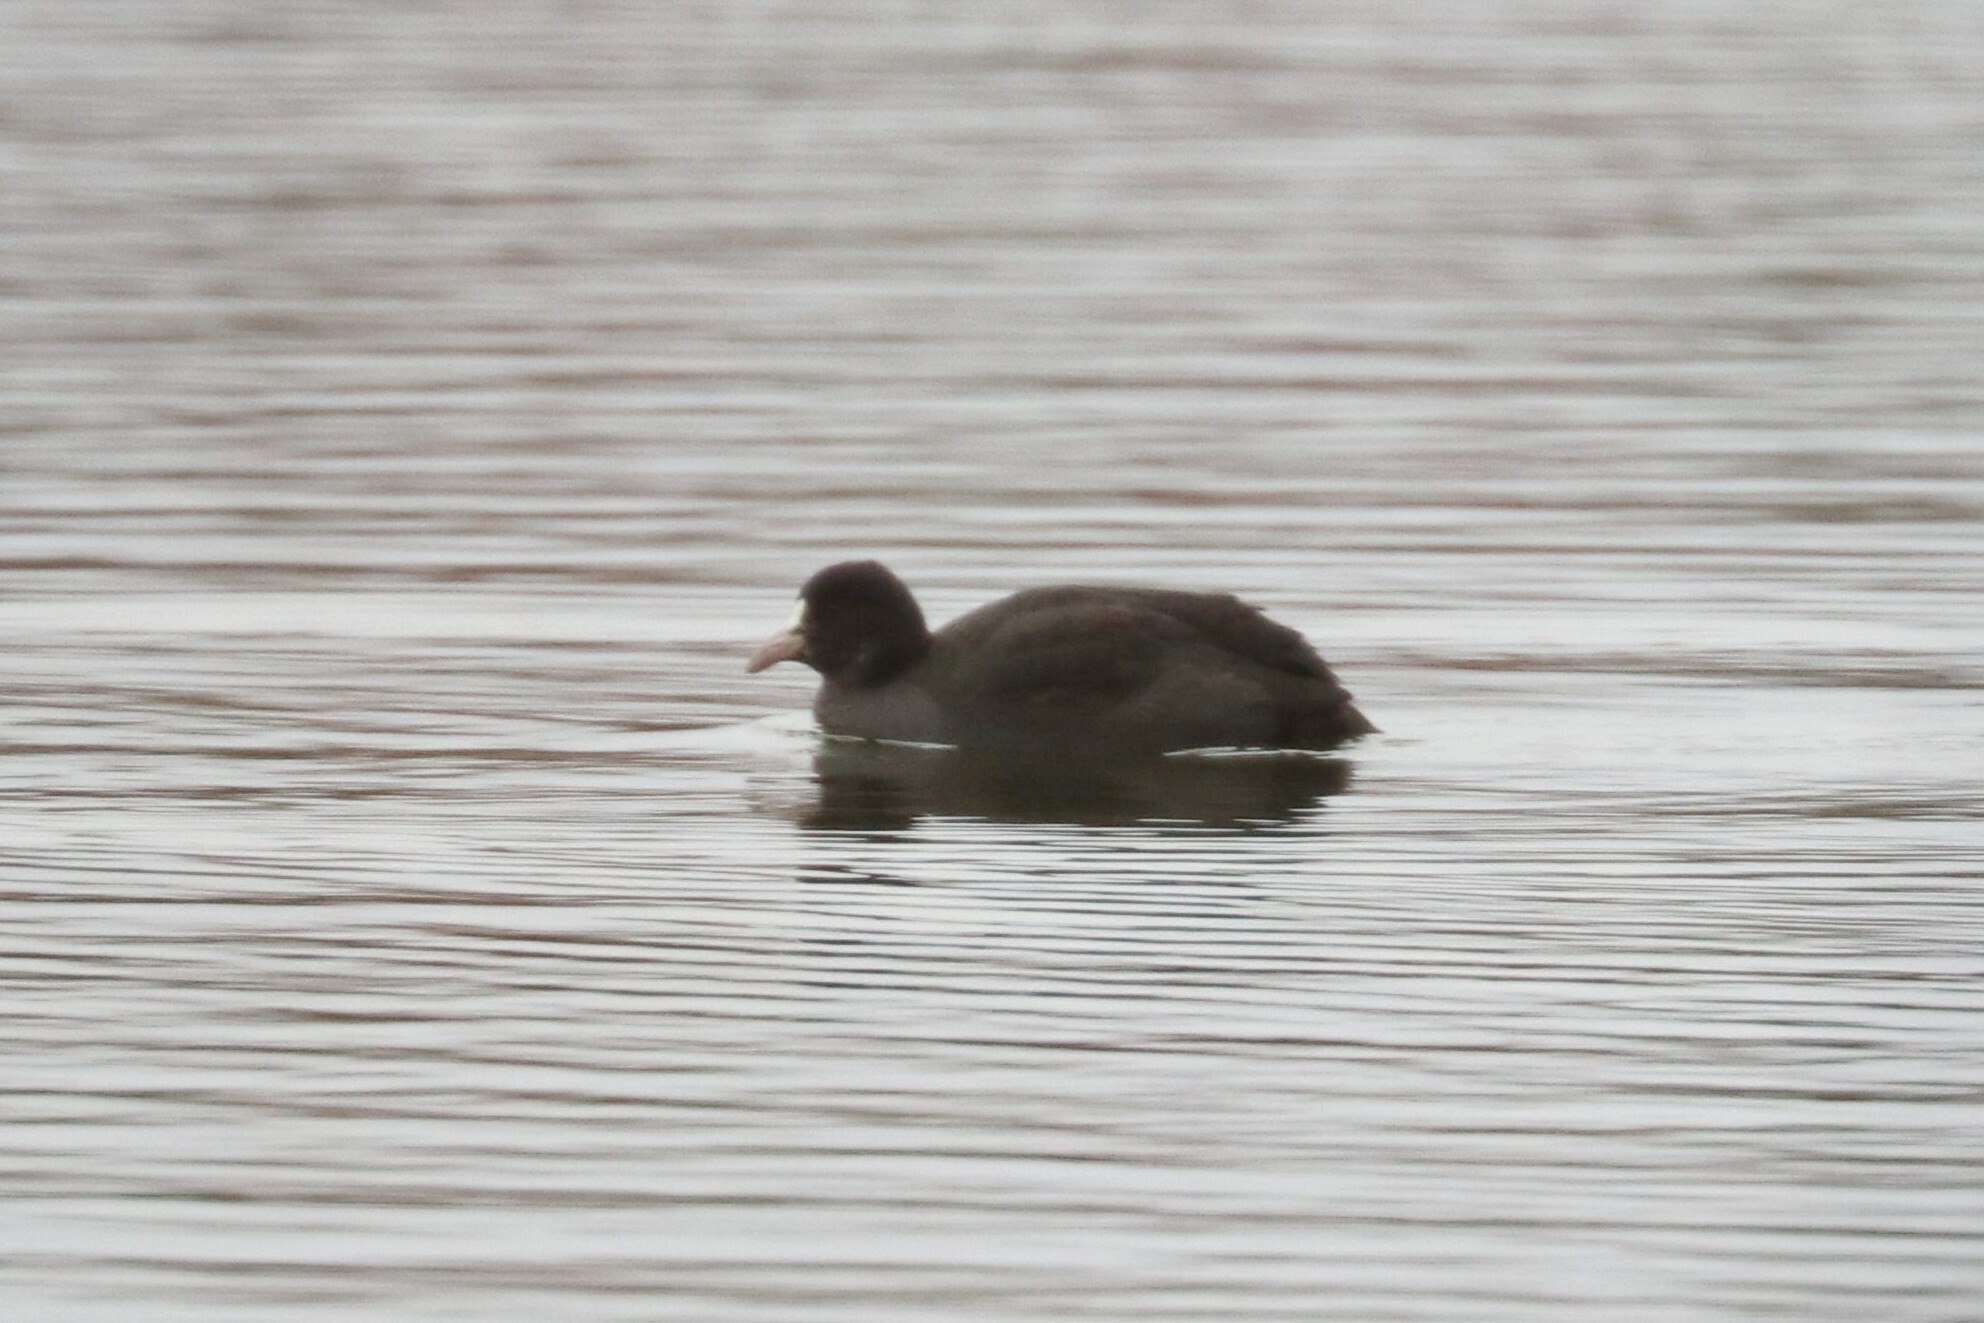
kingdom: Animalia
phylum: Chordata
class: Aves
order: Gruiformes
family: Rallidae
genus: Fulica
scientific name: Fulica atra
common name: Eurasian coot
